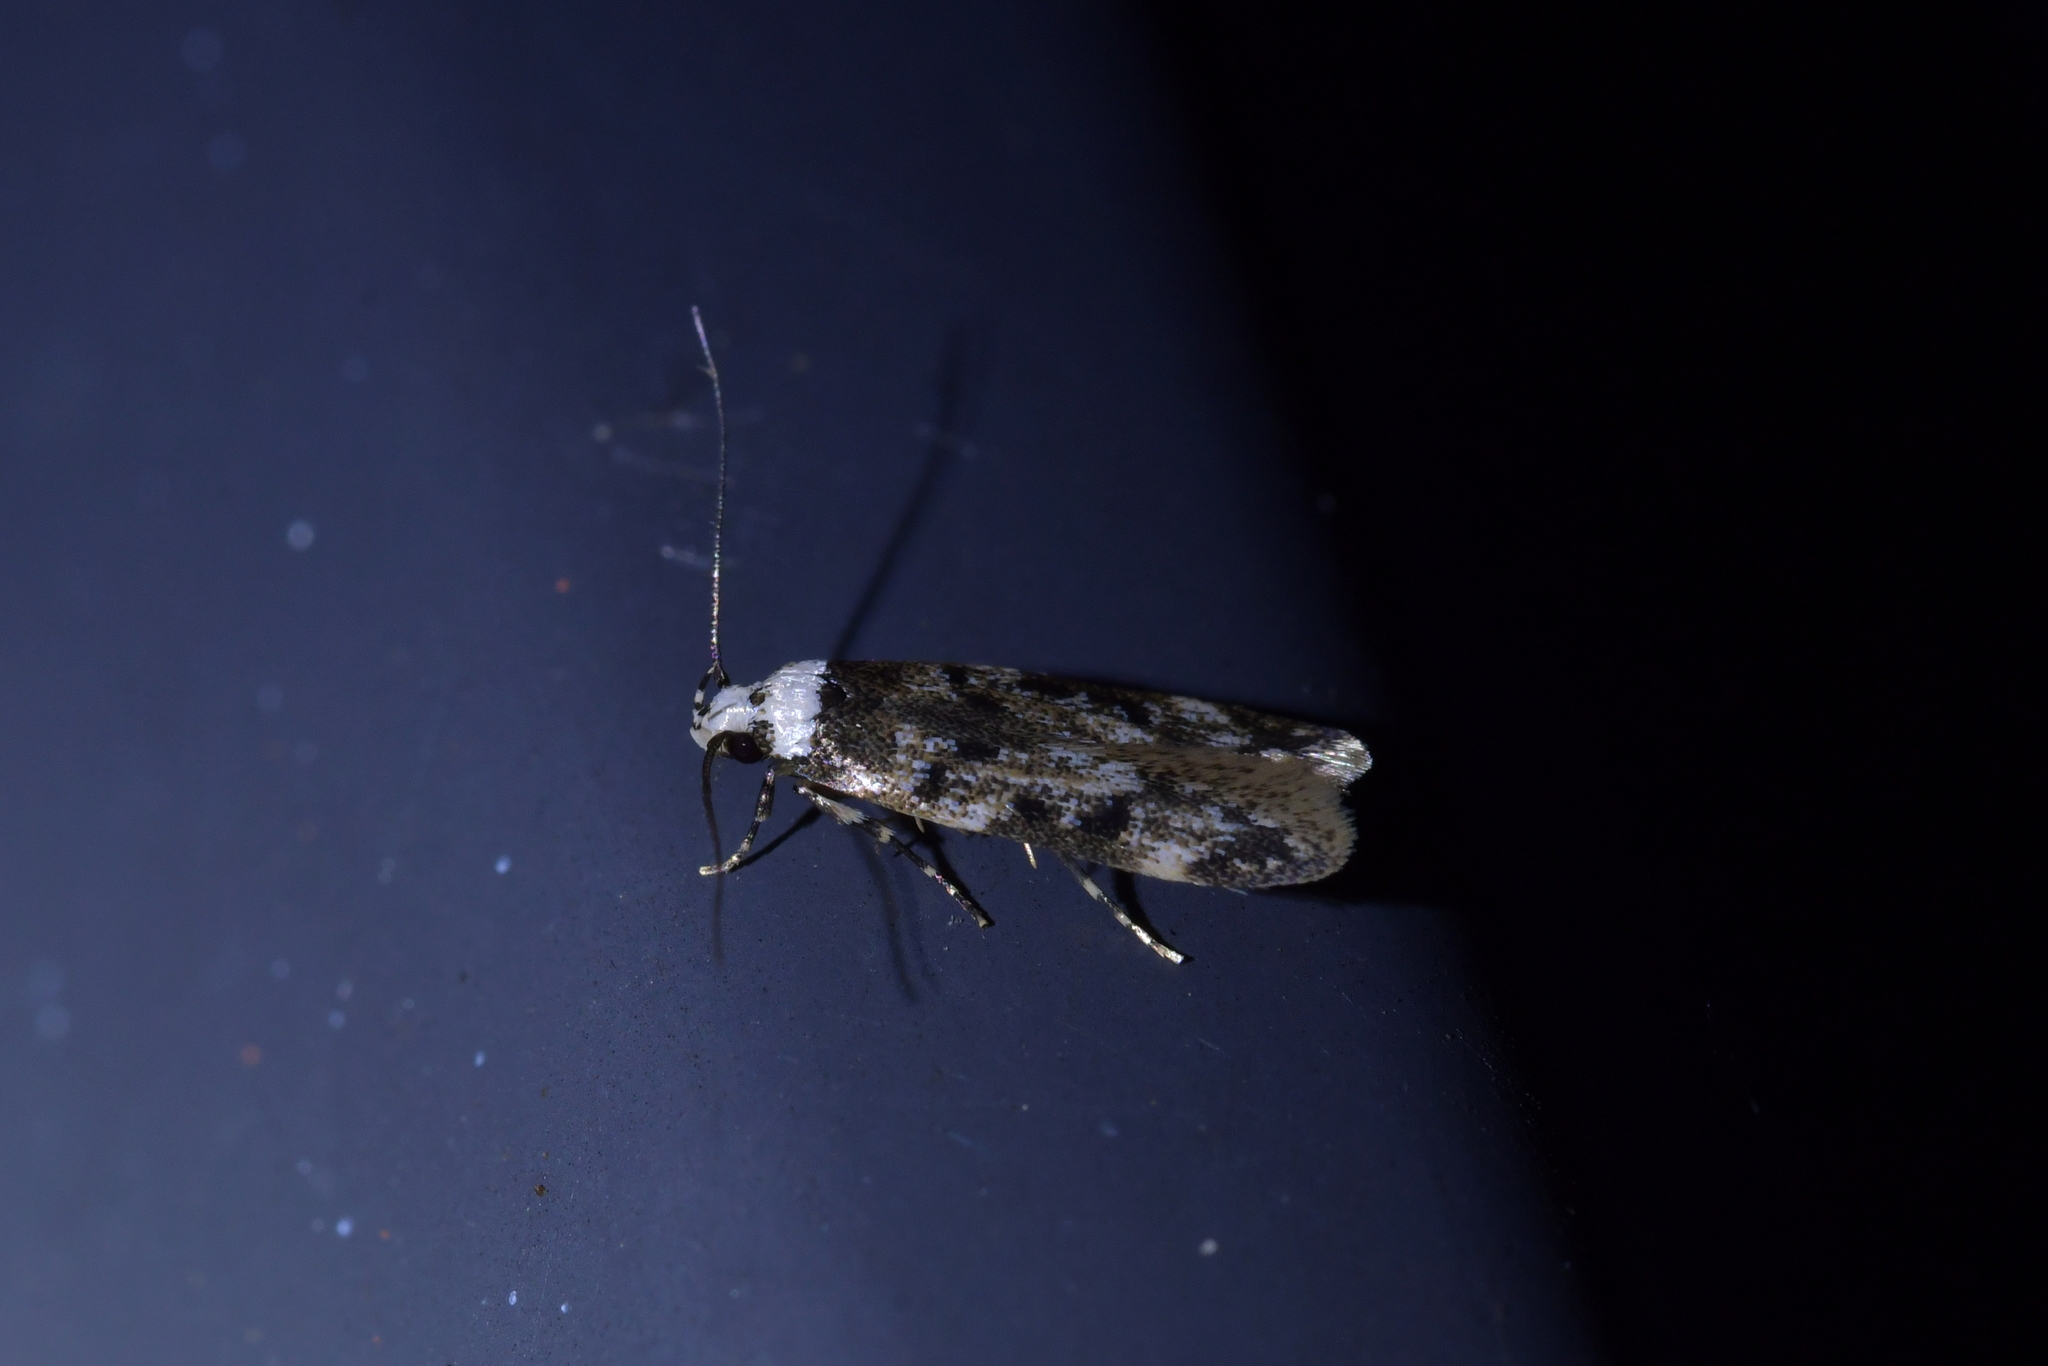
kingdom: Animalia
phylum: Arthropoda
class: Insecta
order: Lepidoptera
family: Oecophoridae
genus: Endrosis
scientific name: Endrosis sarcitrella
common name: White-shouldered house moth
